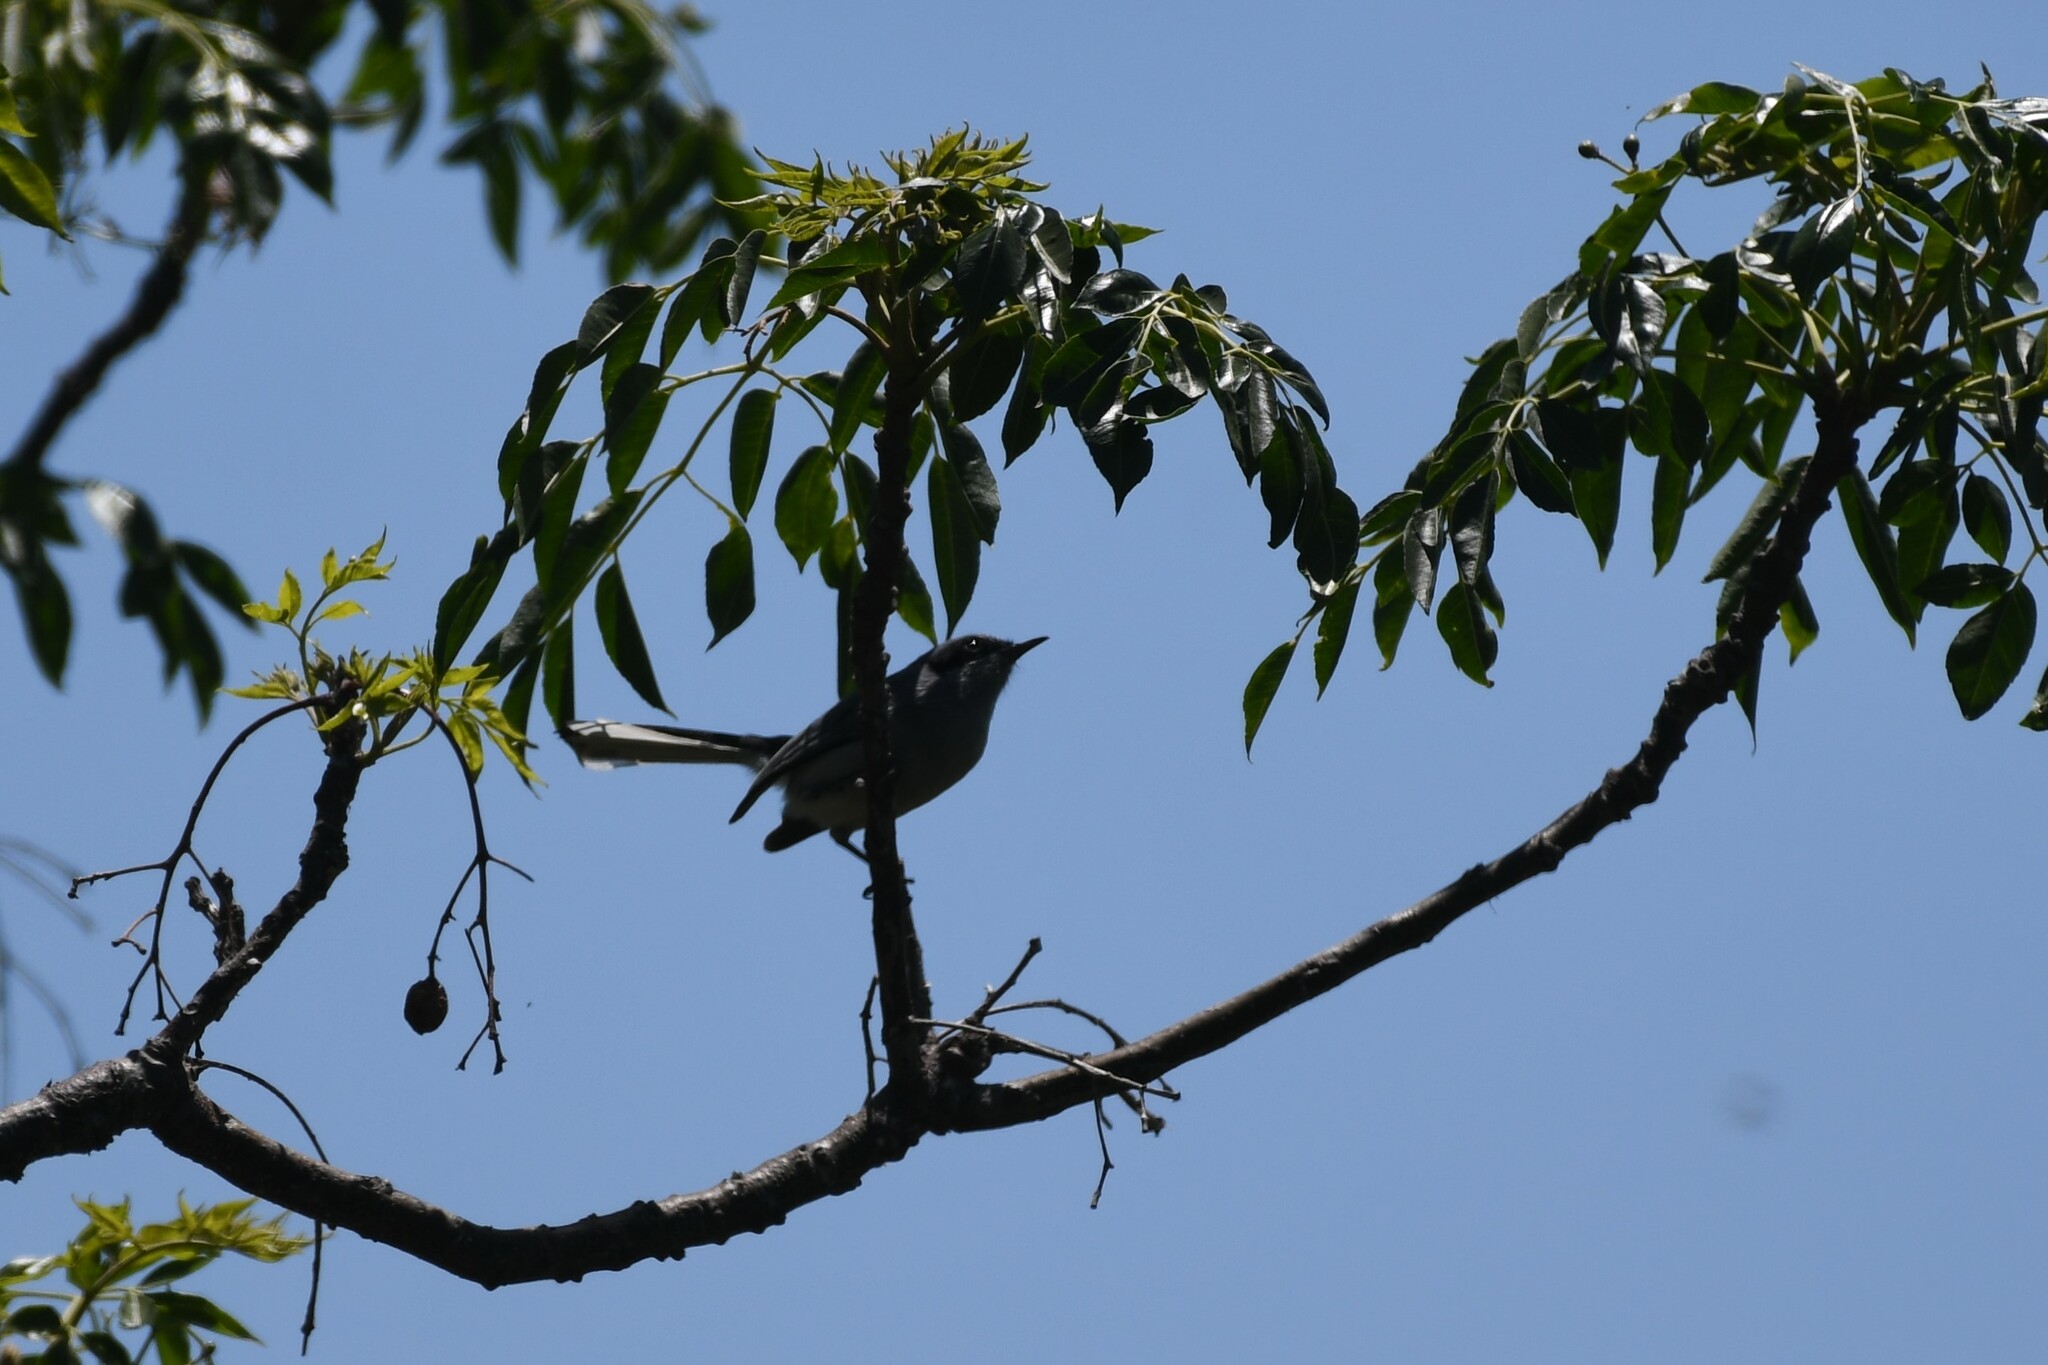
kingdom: Animalia
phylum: Chordata
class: Aves
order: Passeriformes
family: Polioptilidae
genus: Polioptila
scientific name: Polioptila dumicola
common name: Masked gnatcatcher
